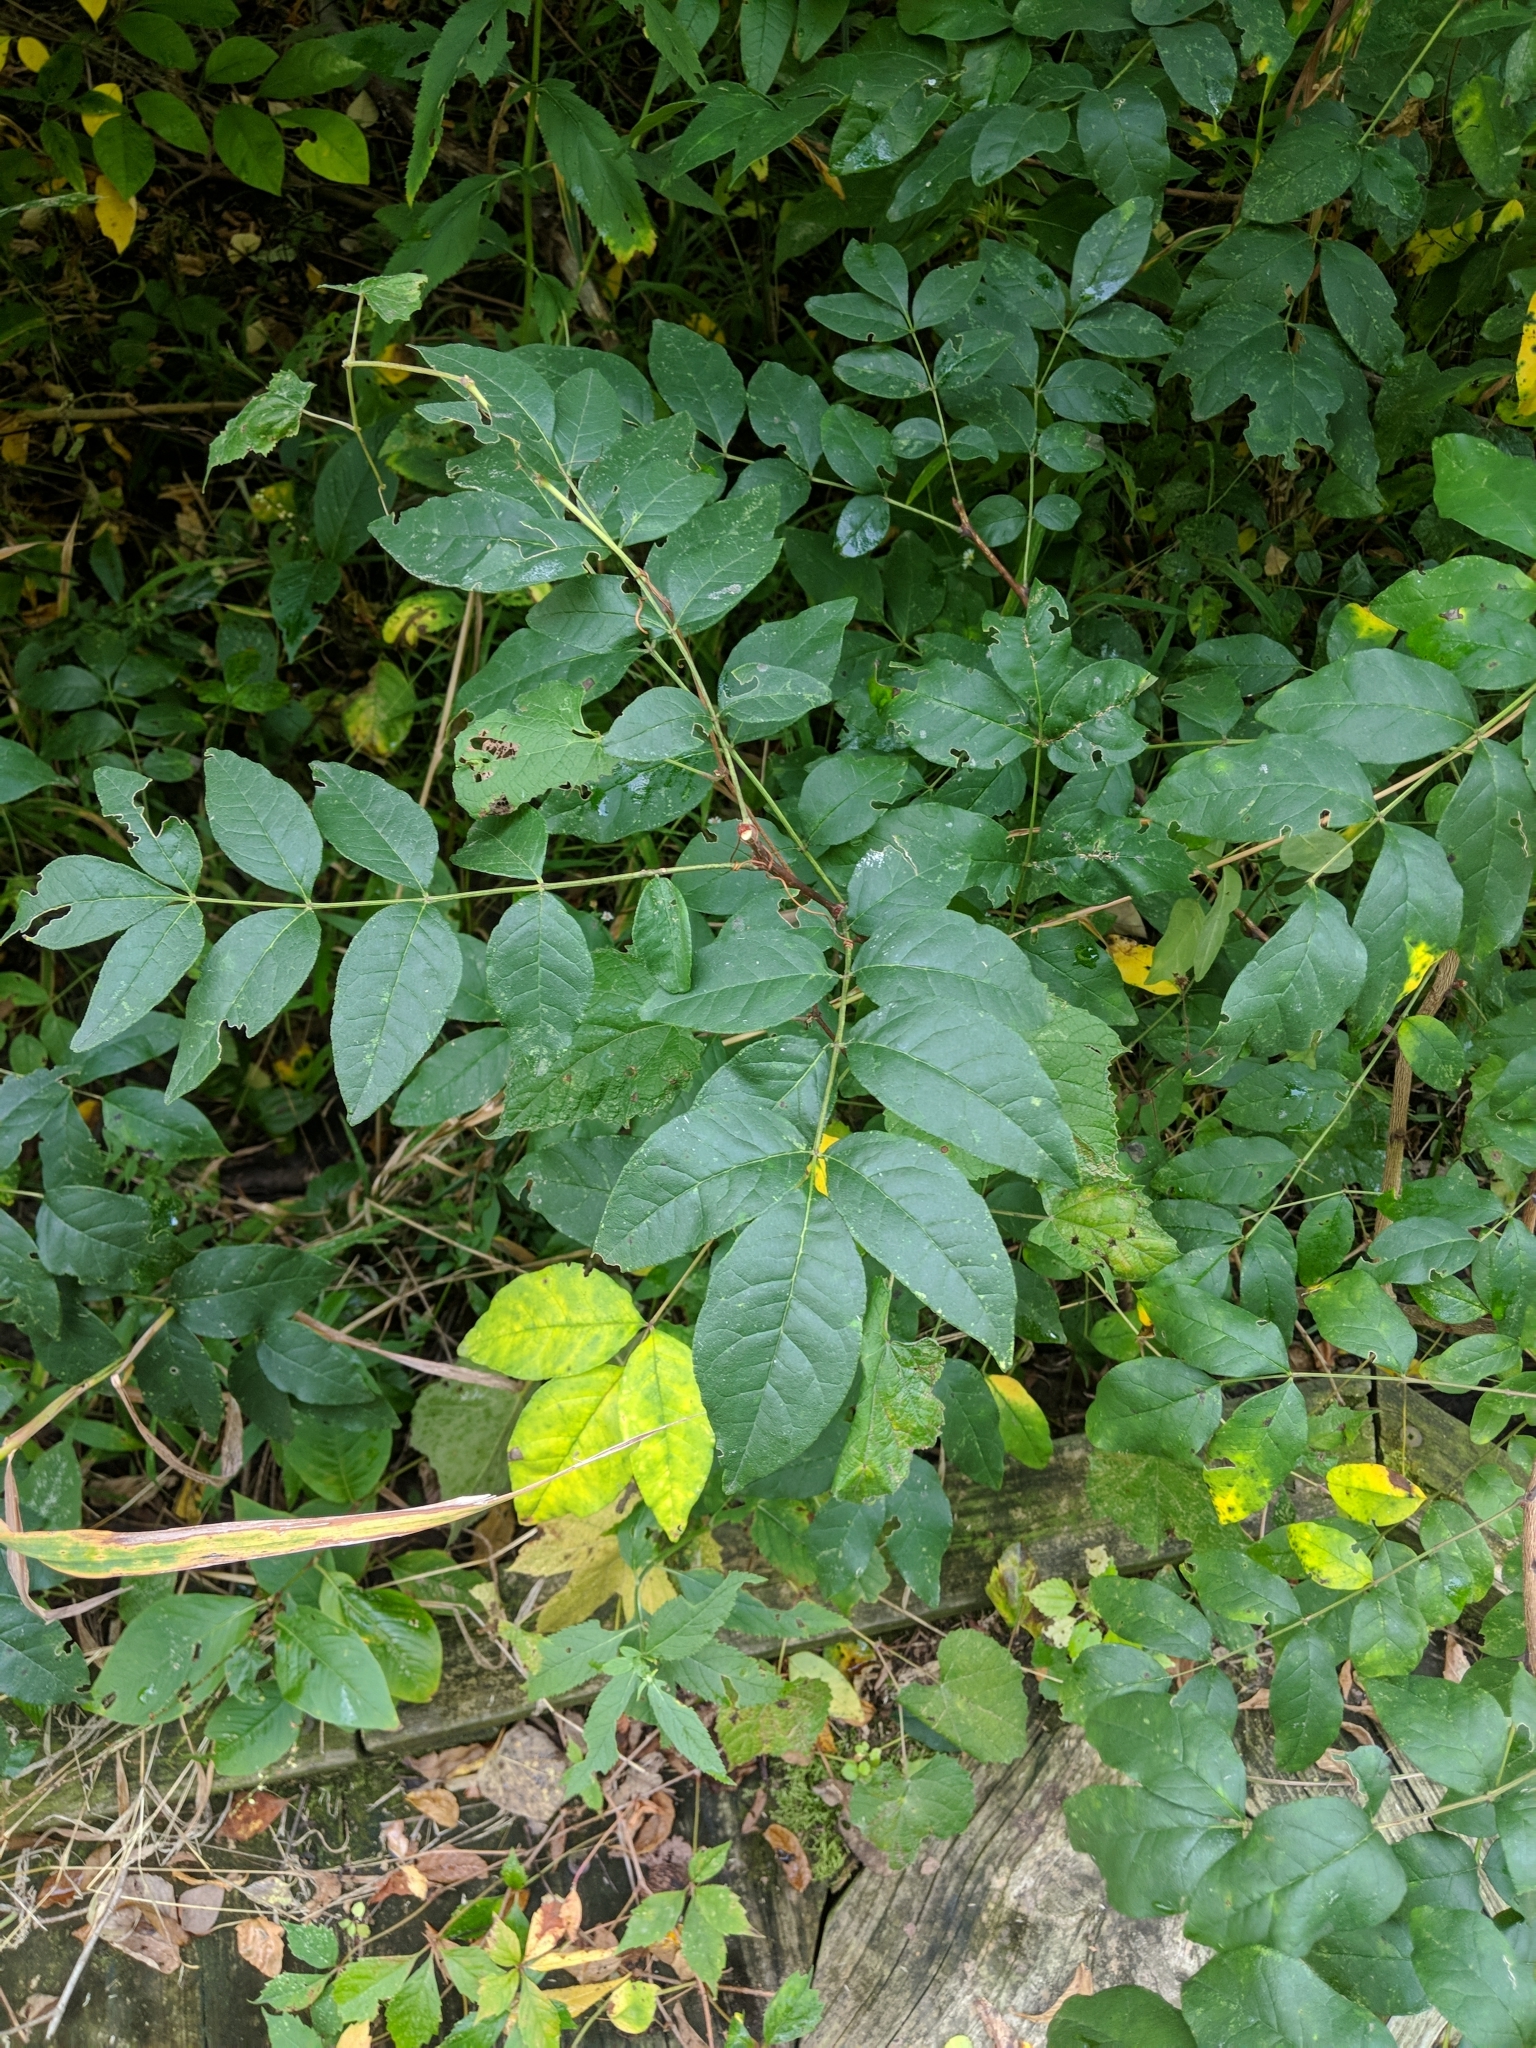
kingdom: Plantae
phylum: Tracheophyta
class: Magnoliopsida
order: Sapindales
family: Rutaceae
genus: Zanthoxylum
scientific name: Zanthoxylum americanum
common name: Northern prickly-ash
